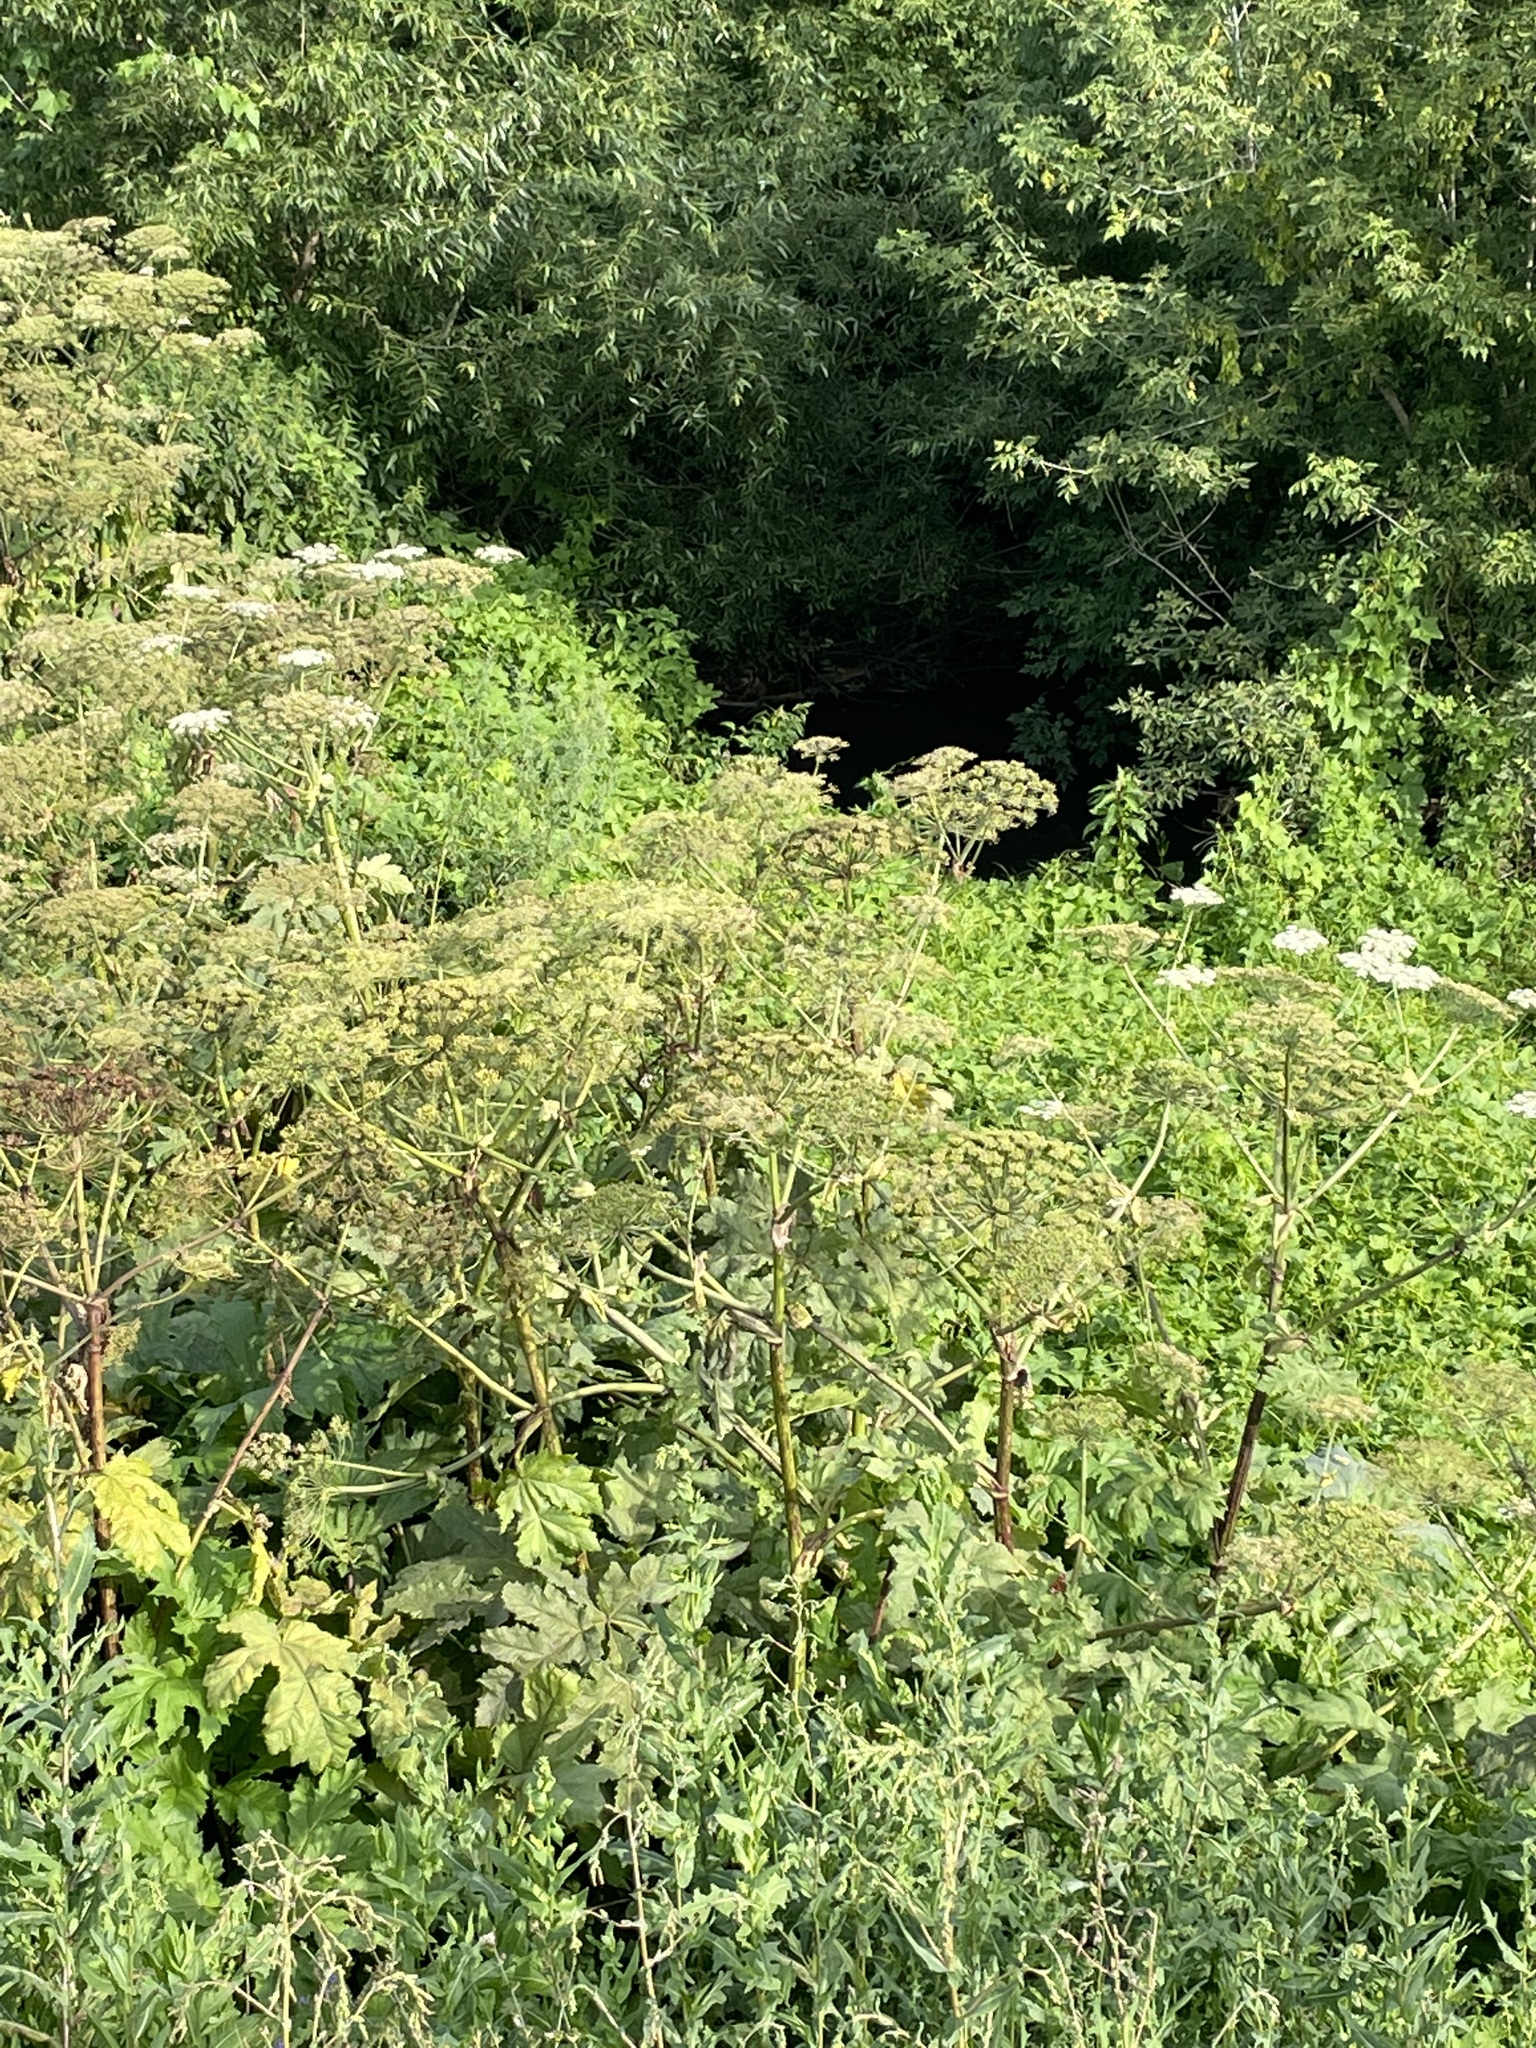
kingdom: Plantae
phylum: Tracheophyta
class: Magnoliopsida
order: Apiales
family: Apiaceae
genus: Heracleum
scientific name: Heracleum sosnowskyi
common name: Sosnowsky's hogweed
